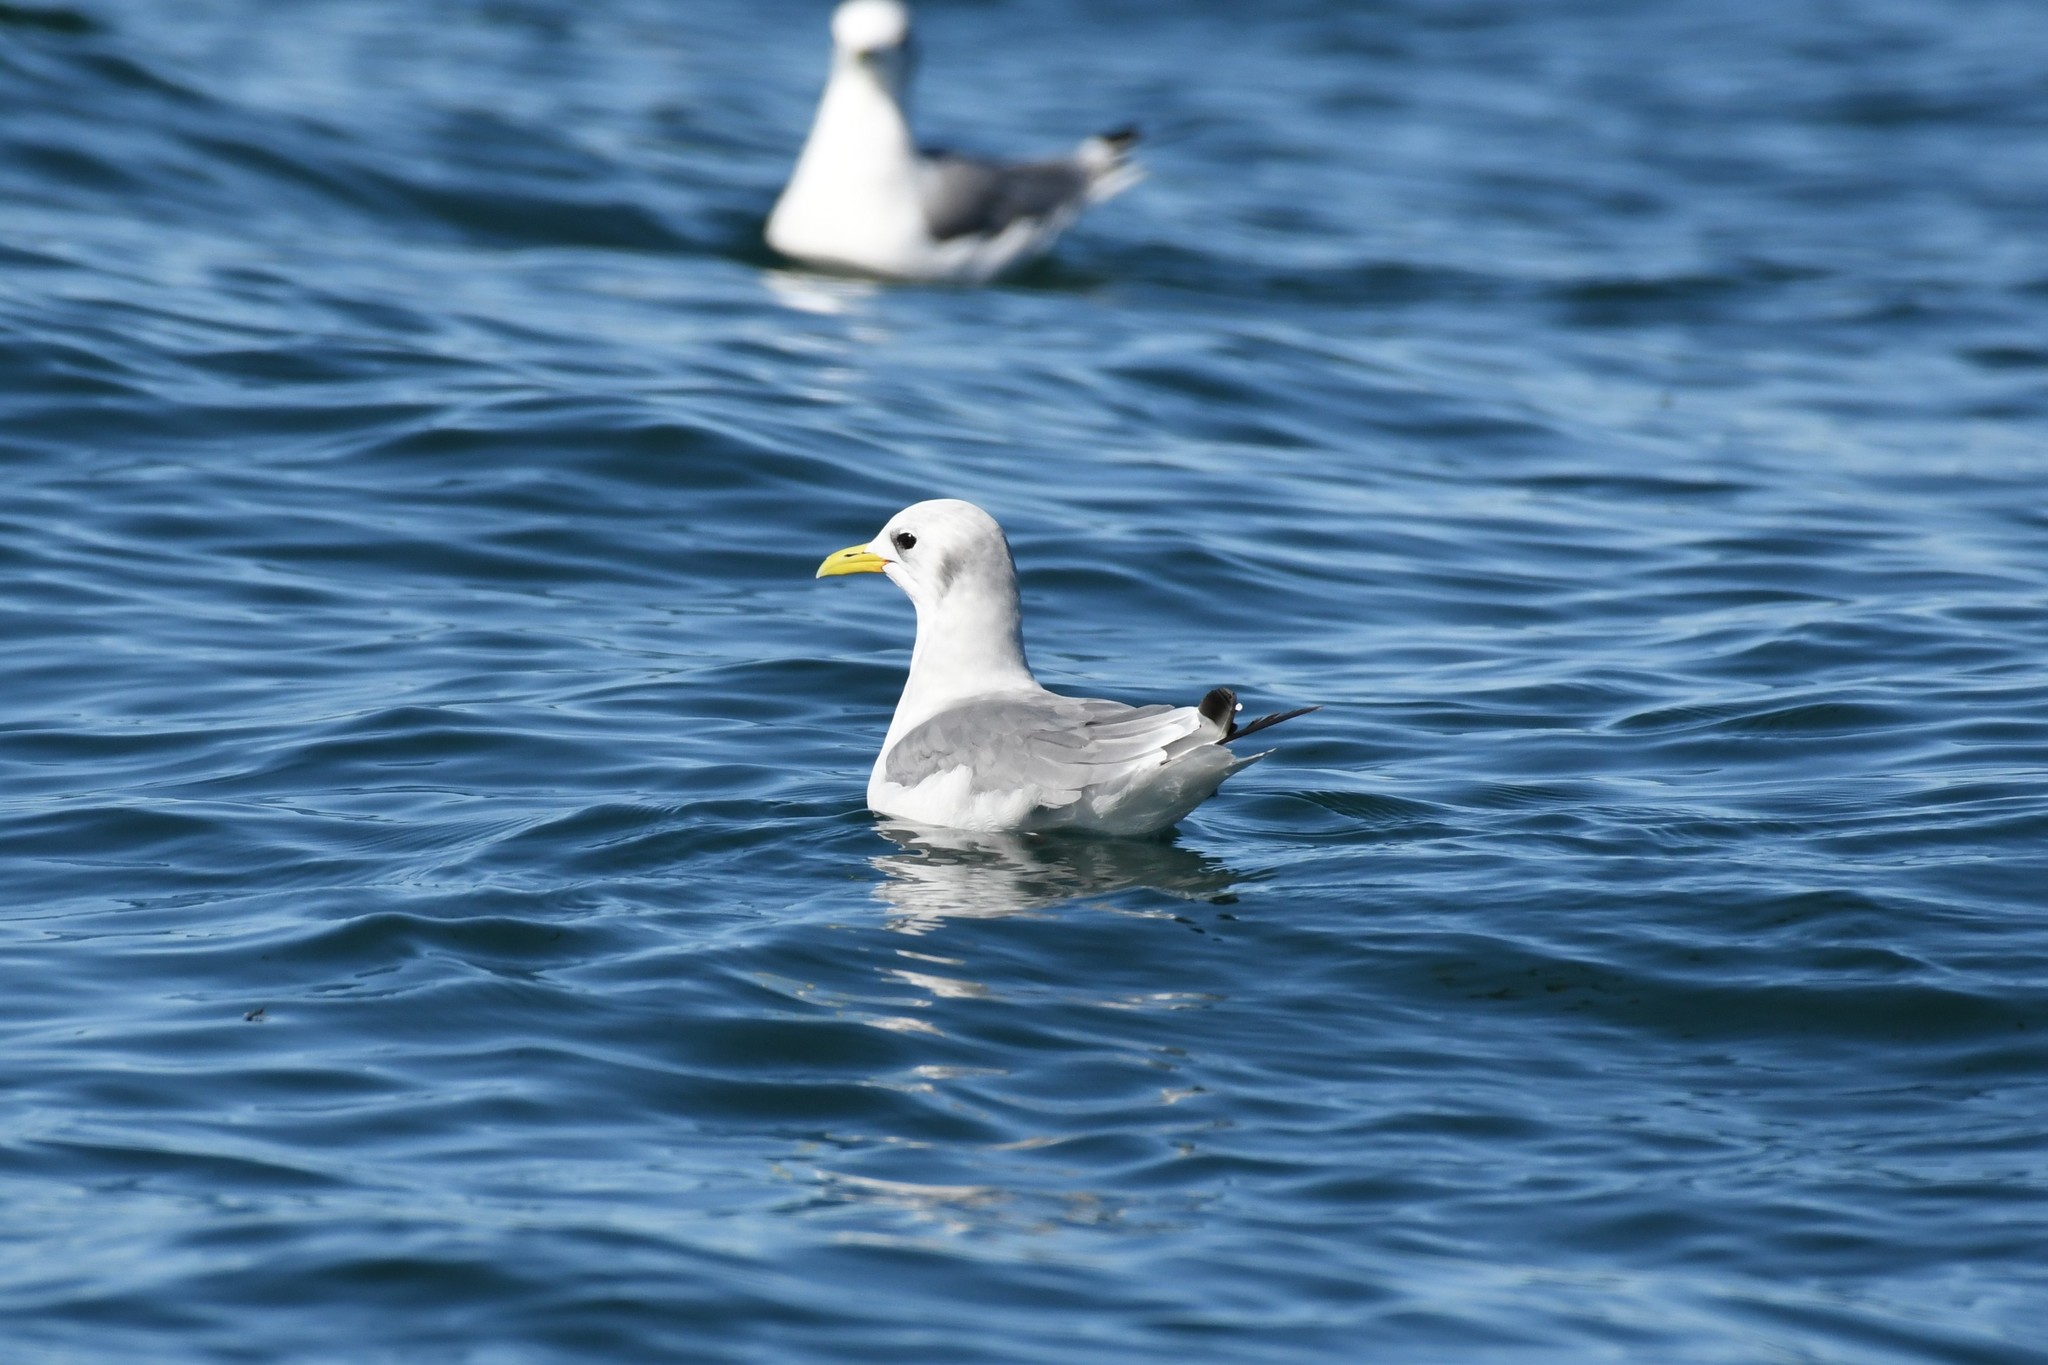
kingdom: Animalia
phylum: Chordata
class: Aves
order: Charadriiformes
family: Laridae
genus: Rissa
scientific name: Rissa tridactyla
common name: Black-legged kittiwake
